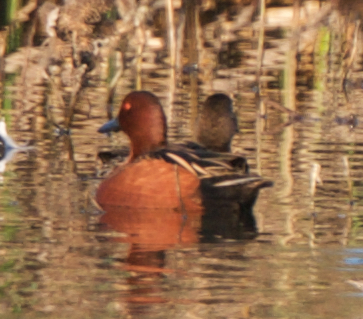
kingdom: Animalia
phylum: Chordata
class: Aves
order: Anseriformes
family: Anatidae
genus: Spatula
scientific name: Spatula cyanoptera
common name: Cinnamon teal
